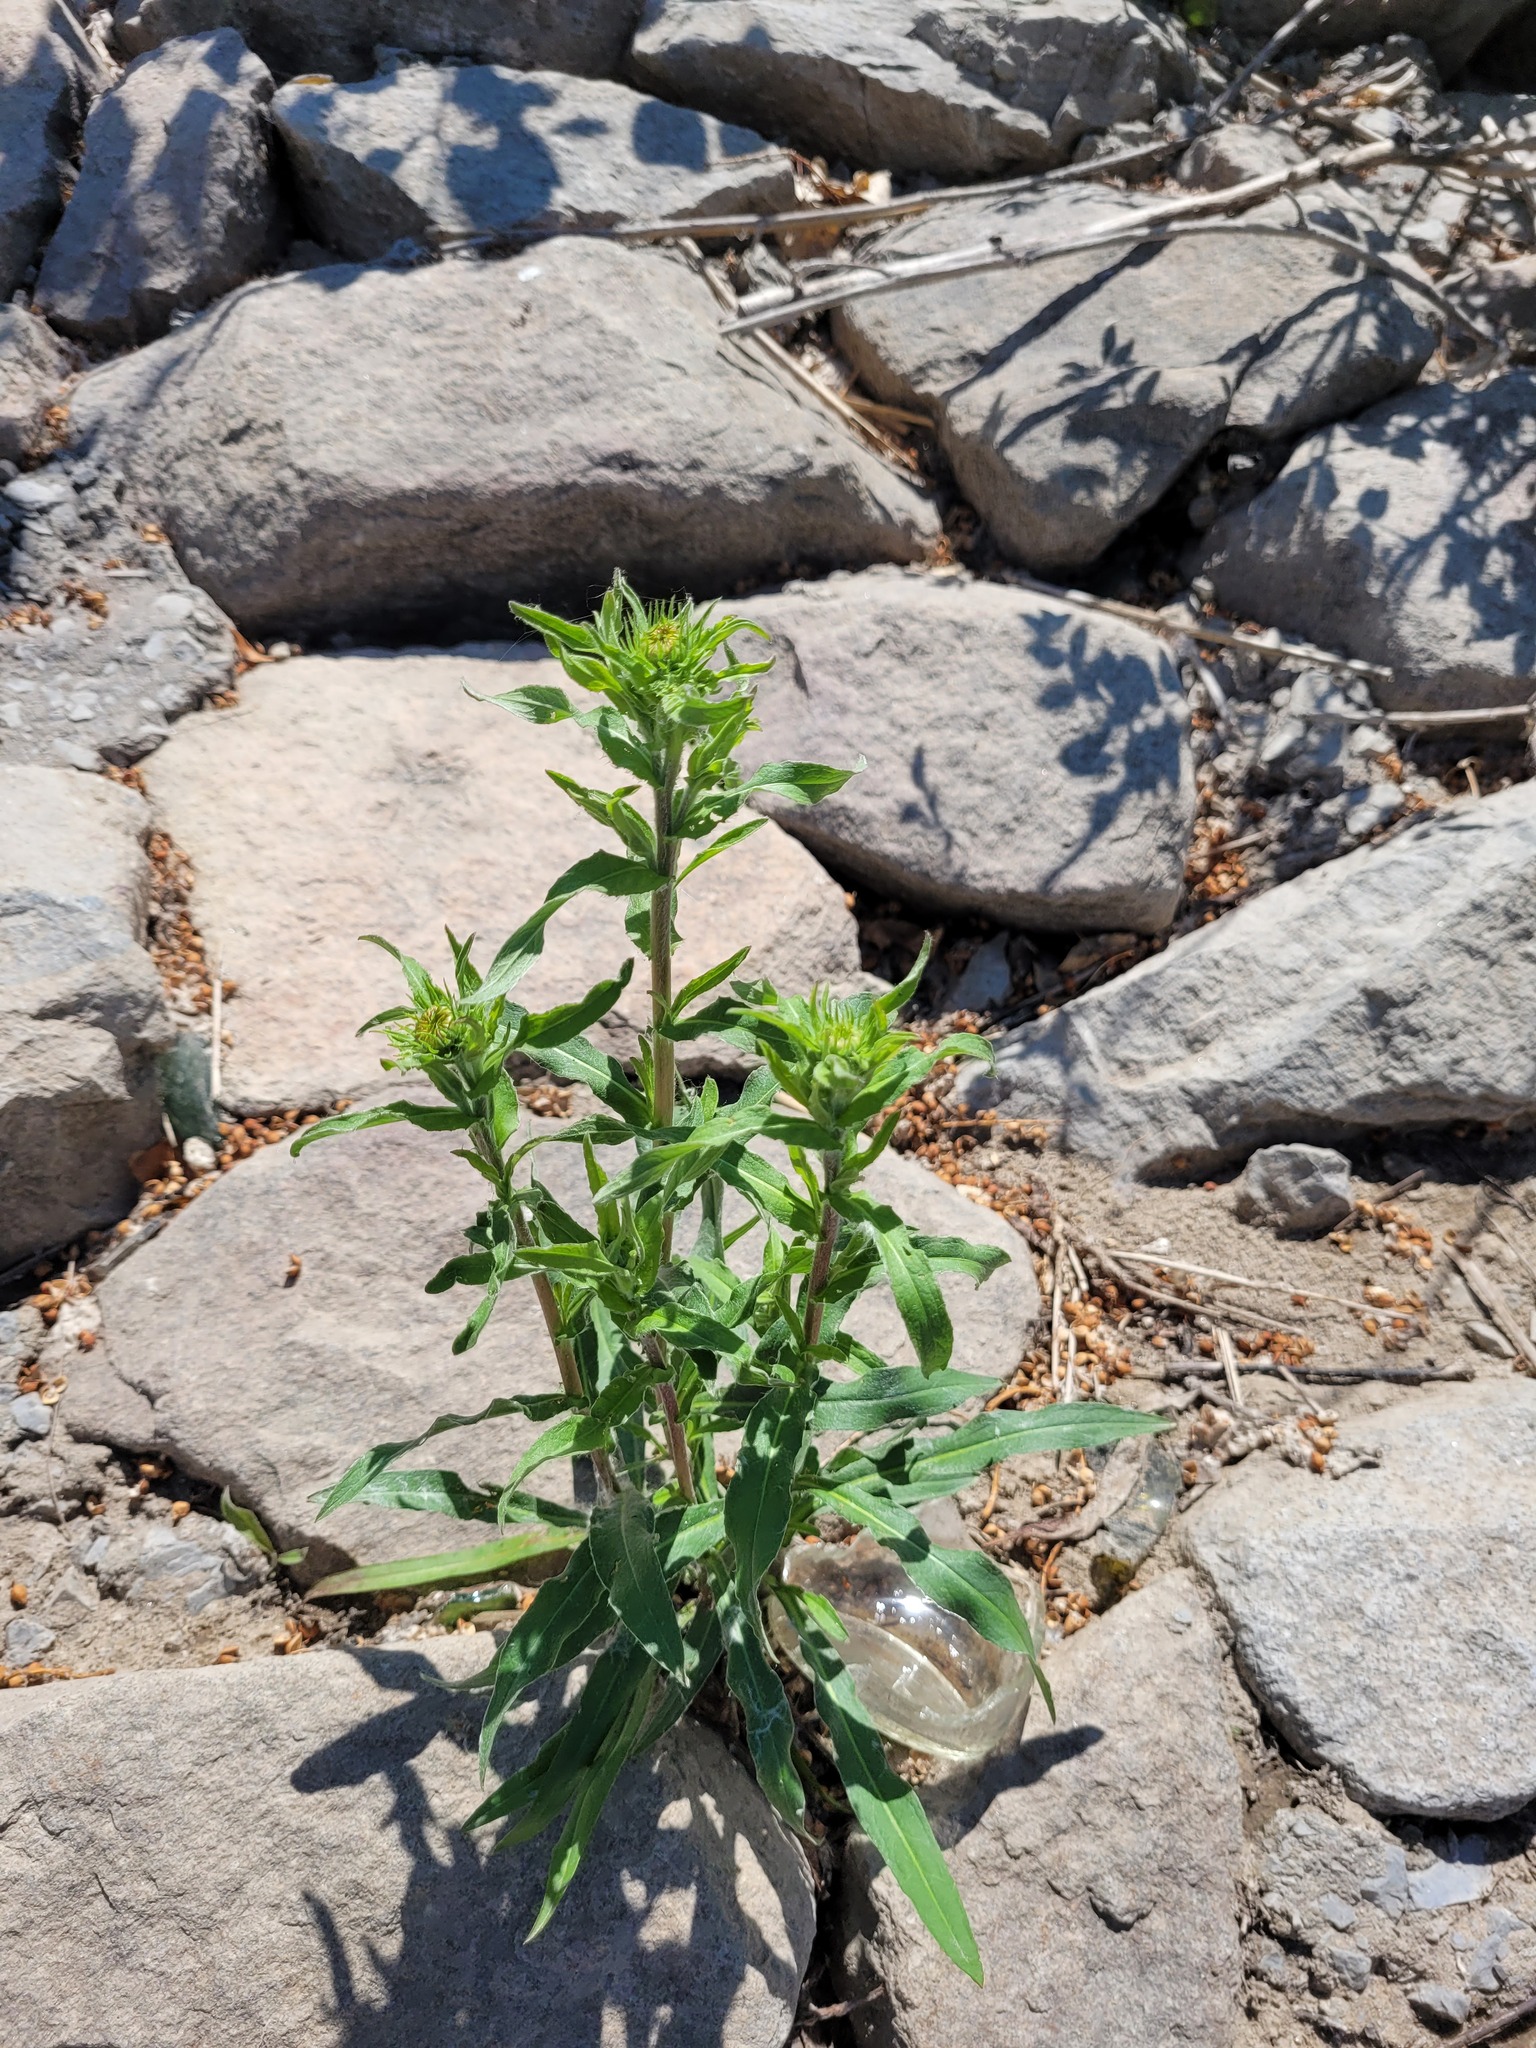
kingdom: Plantae
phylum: Tracheophyta
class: Magnoliopsida
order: Asterales
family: Asteraceae
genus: Pentanema
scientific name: Pentanema britannicum
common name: British elecampane
